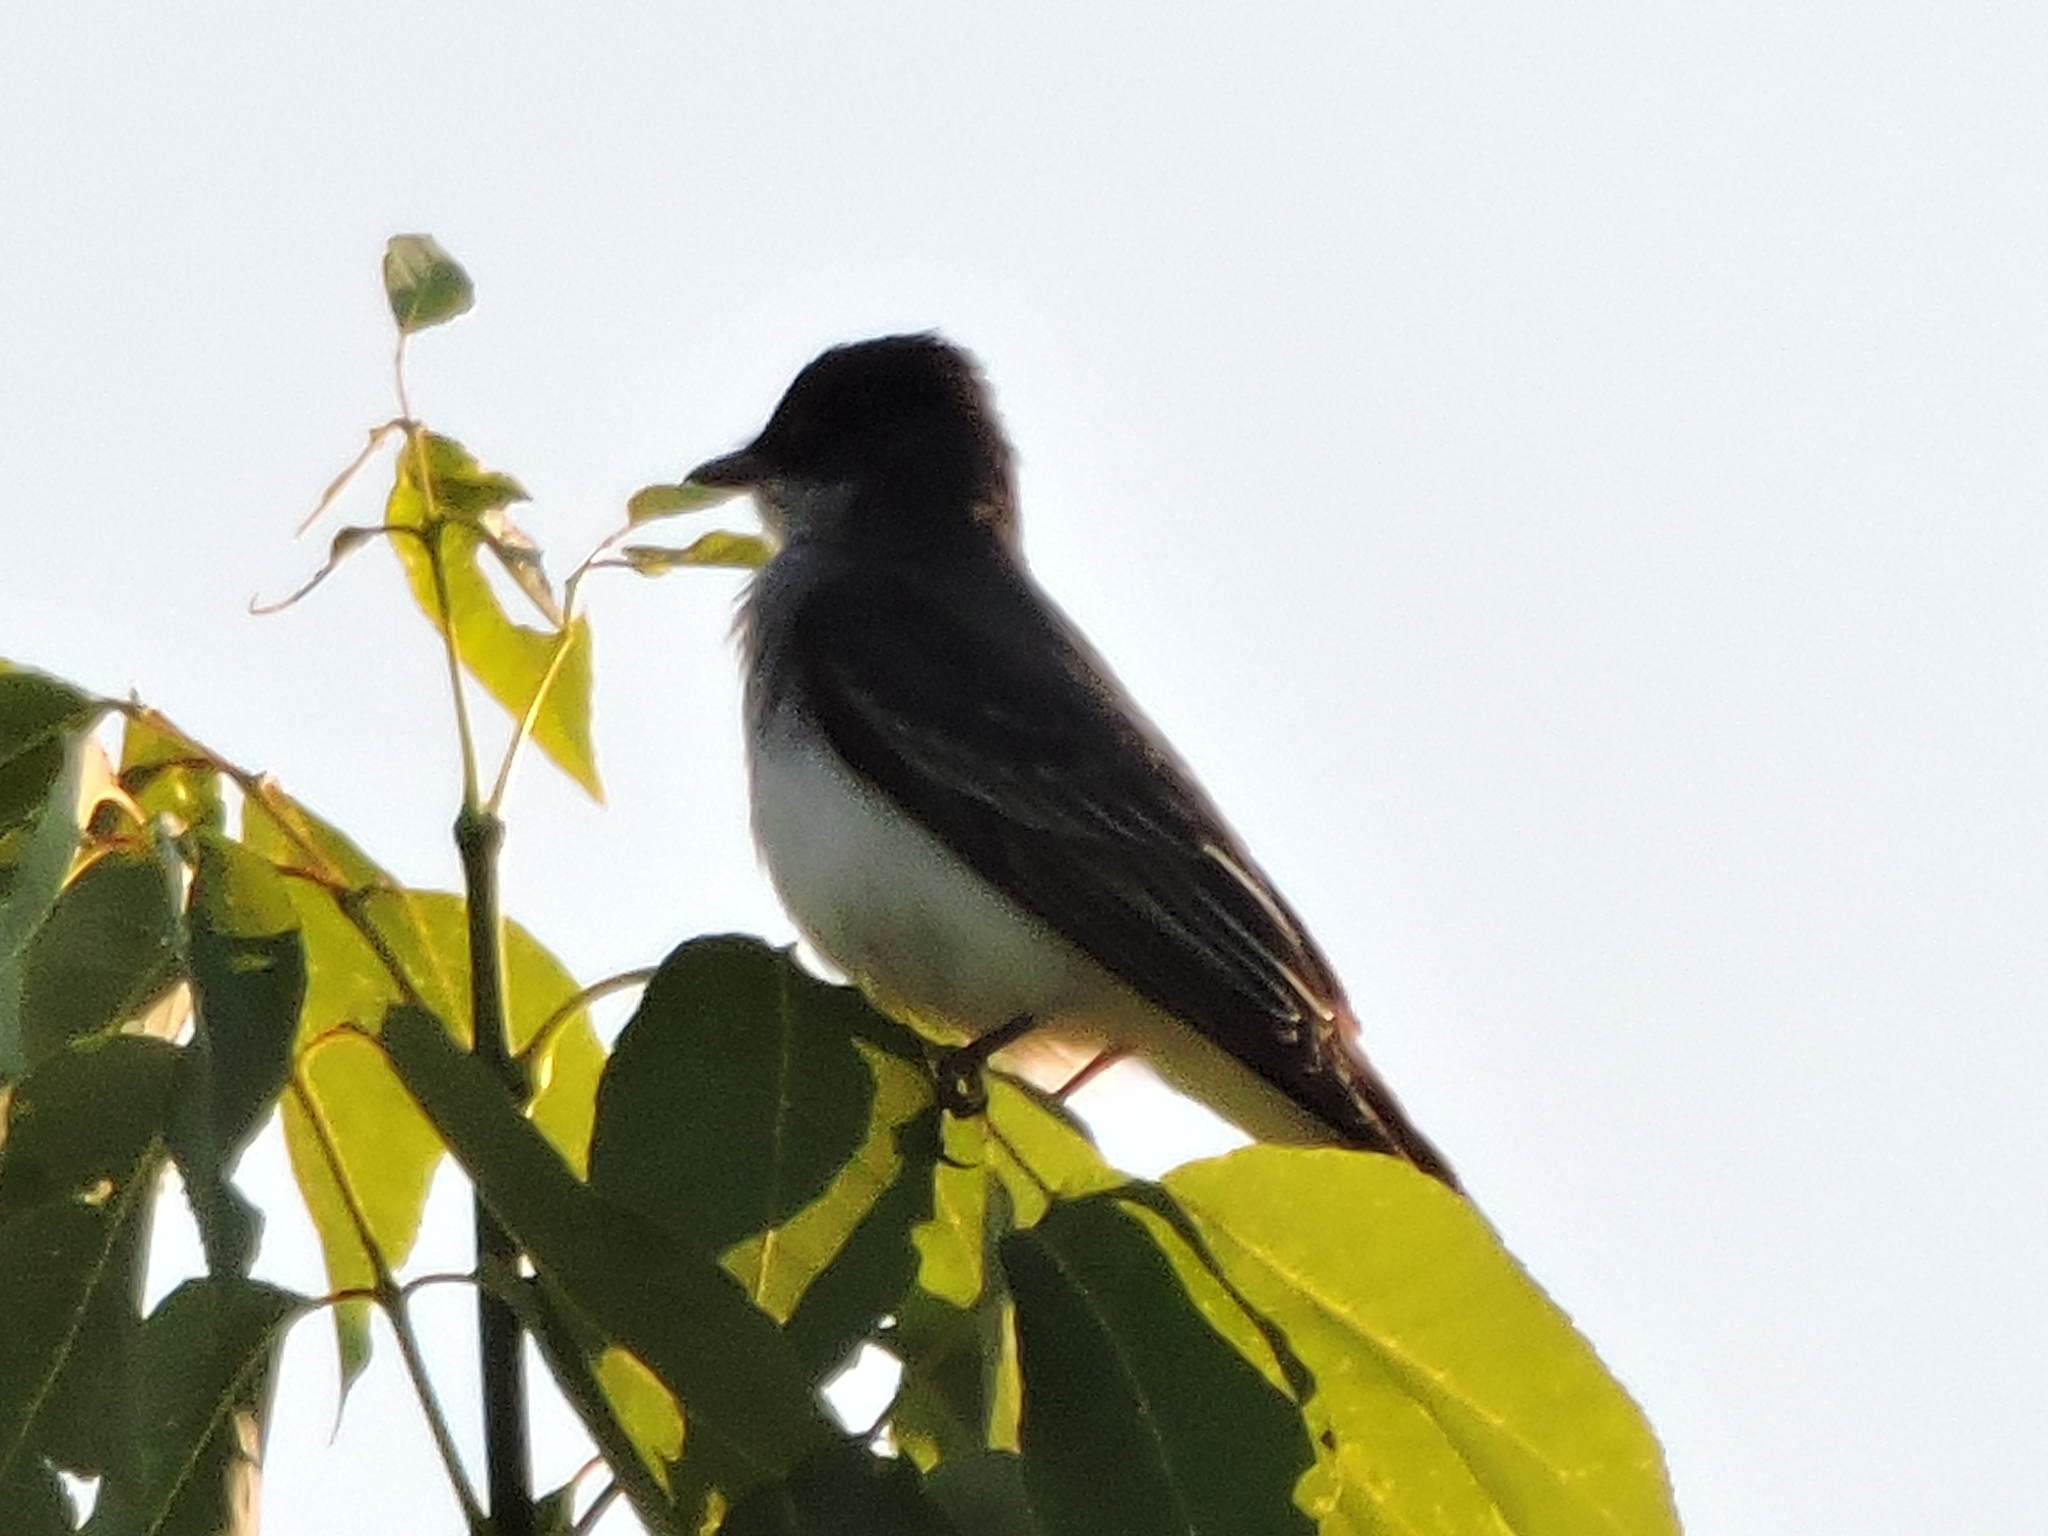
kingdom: Animalia
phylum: Chordata
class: Aves
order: Passeriformes
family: Tyrannidae
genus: Tyrannus
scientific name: Tyrannus tyrannus
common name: Eastern kingbird
